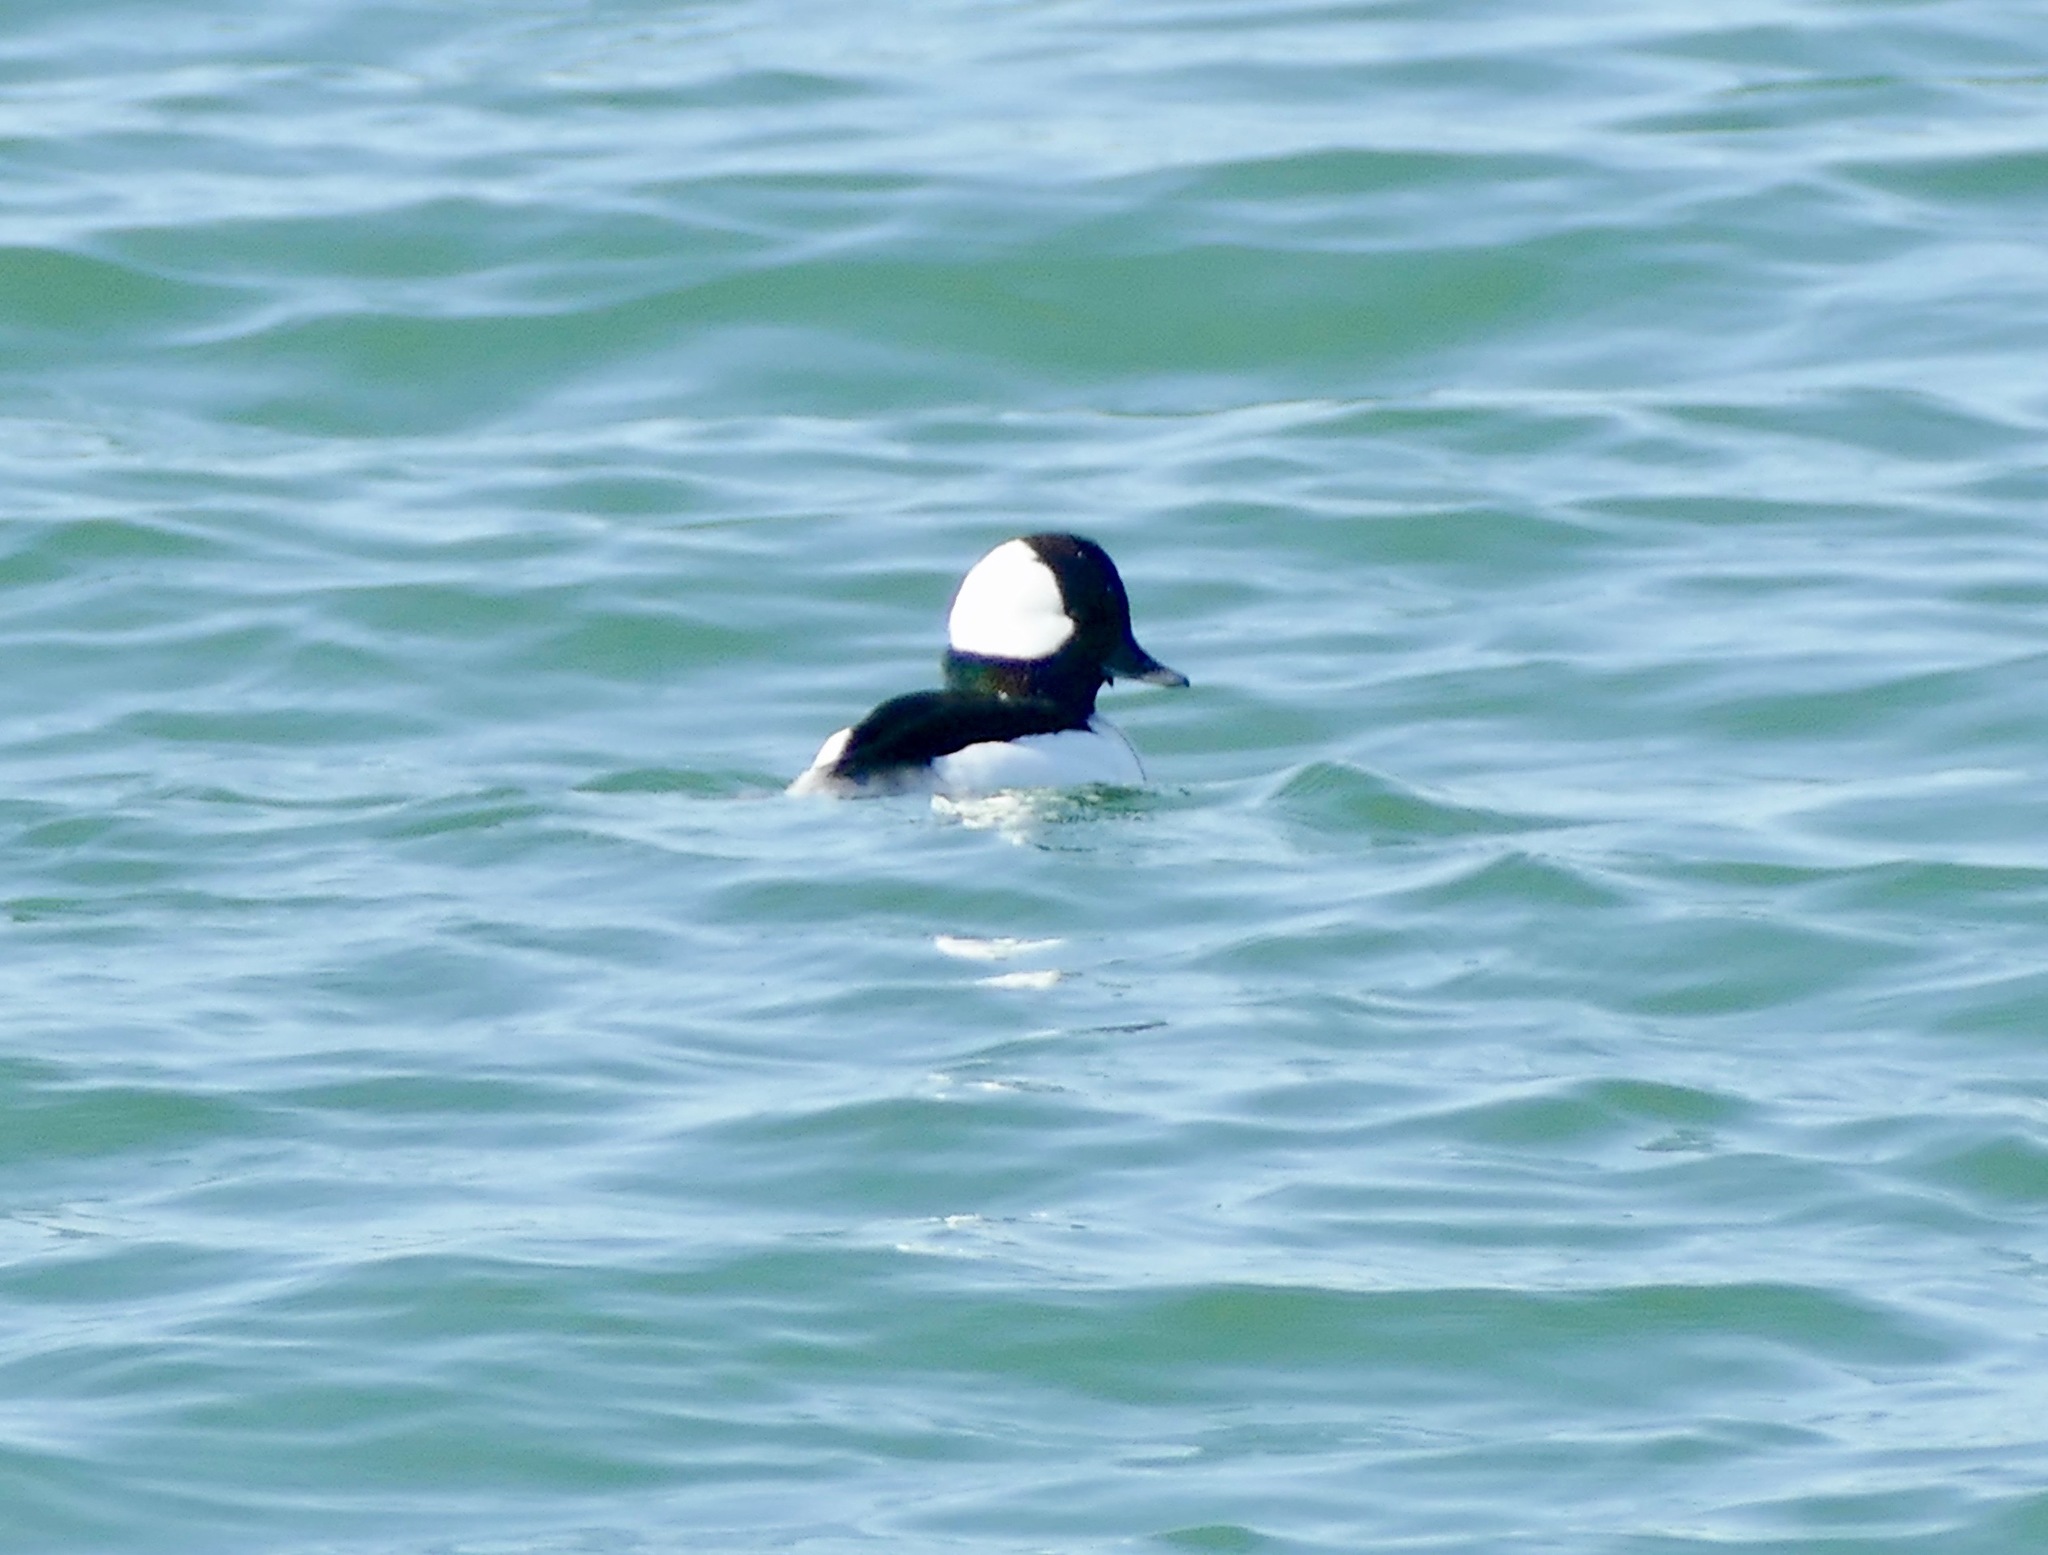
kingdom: Animalia
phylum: Chordata
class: Aves
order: Anseriformes
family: Anatidae
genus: Bucephala
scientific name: Bucephala albeola
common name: Bufflehead
